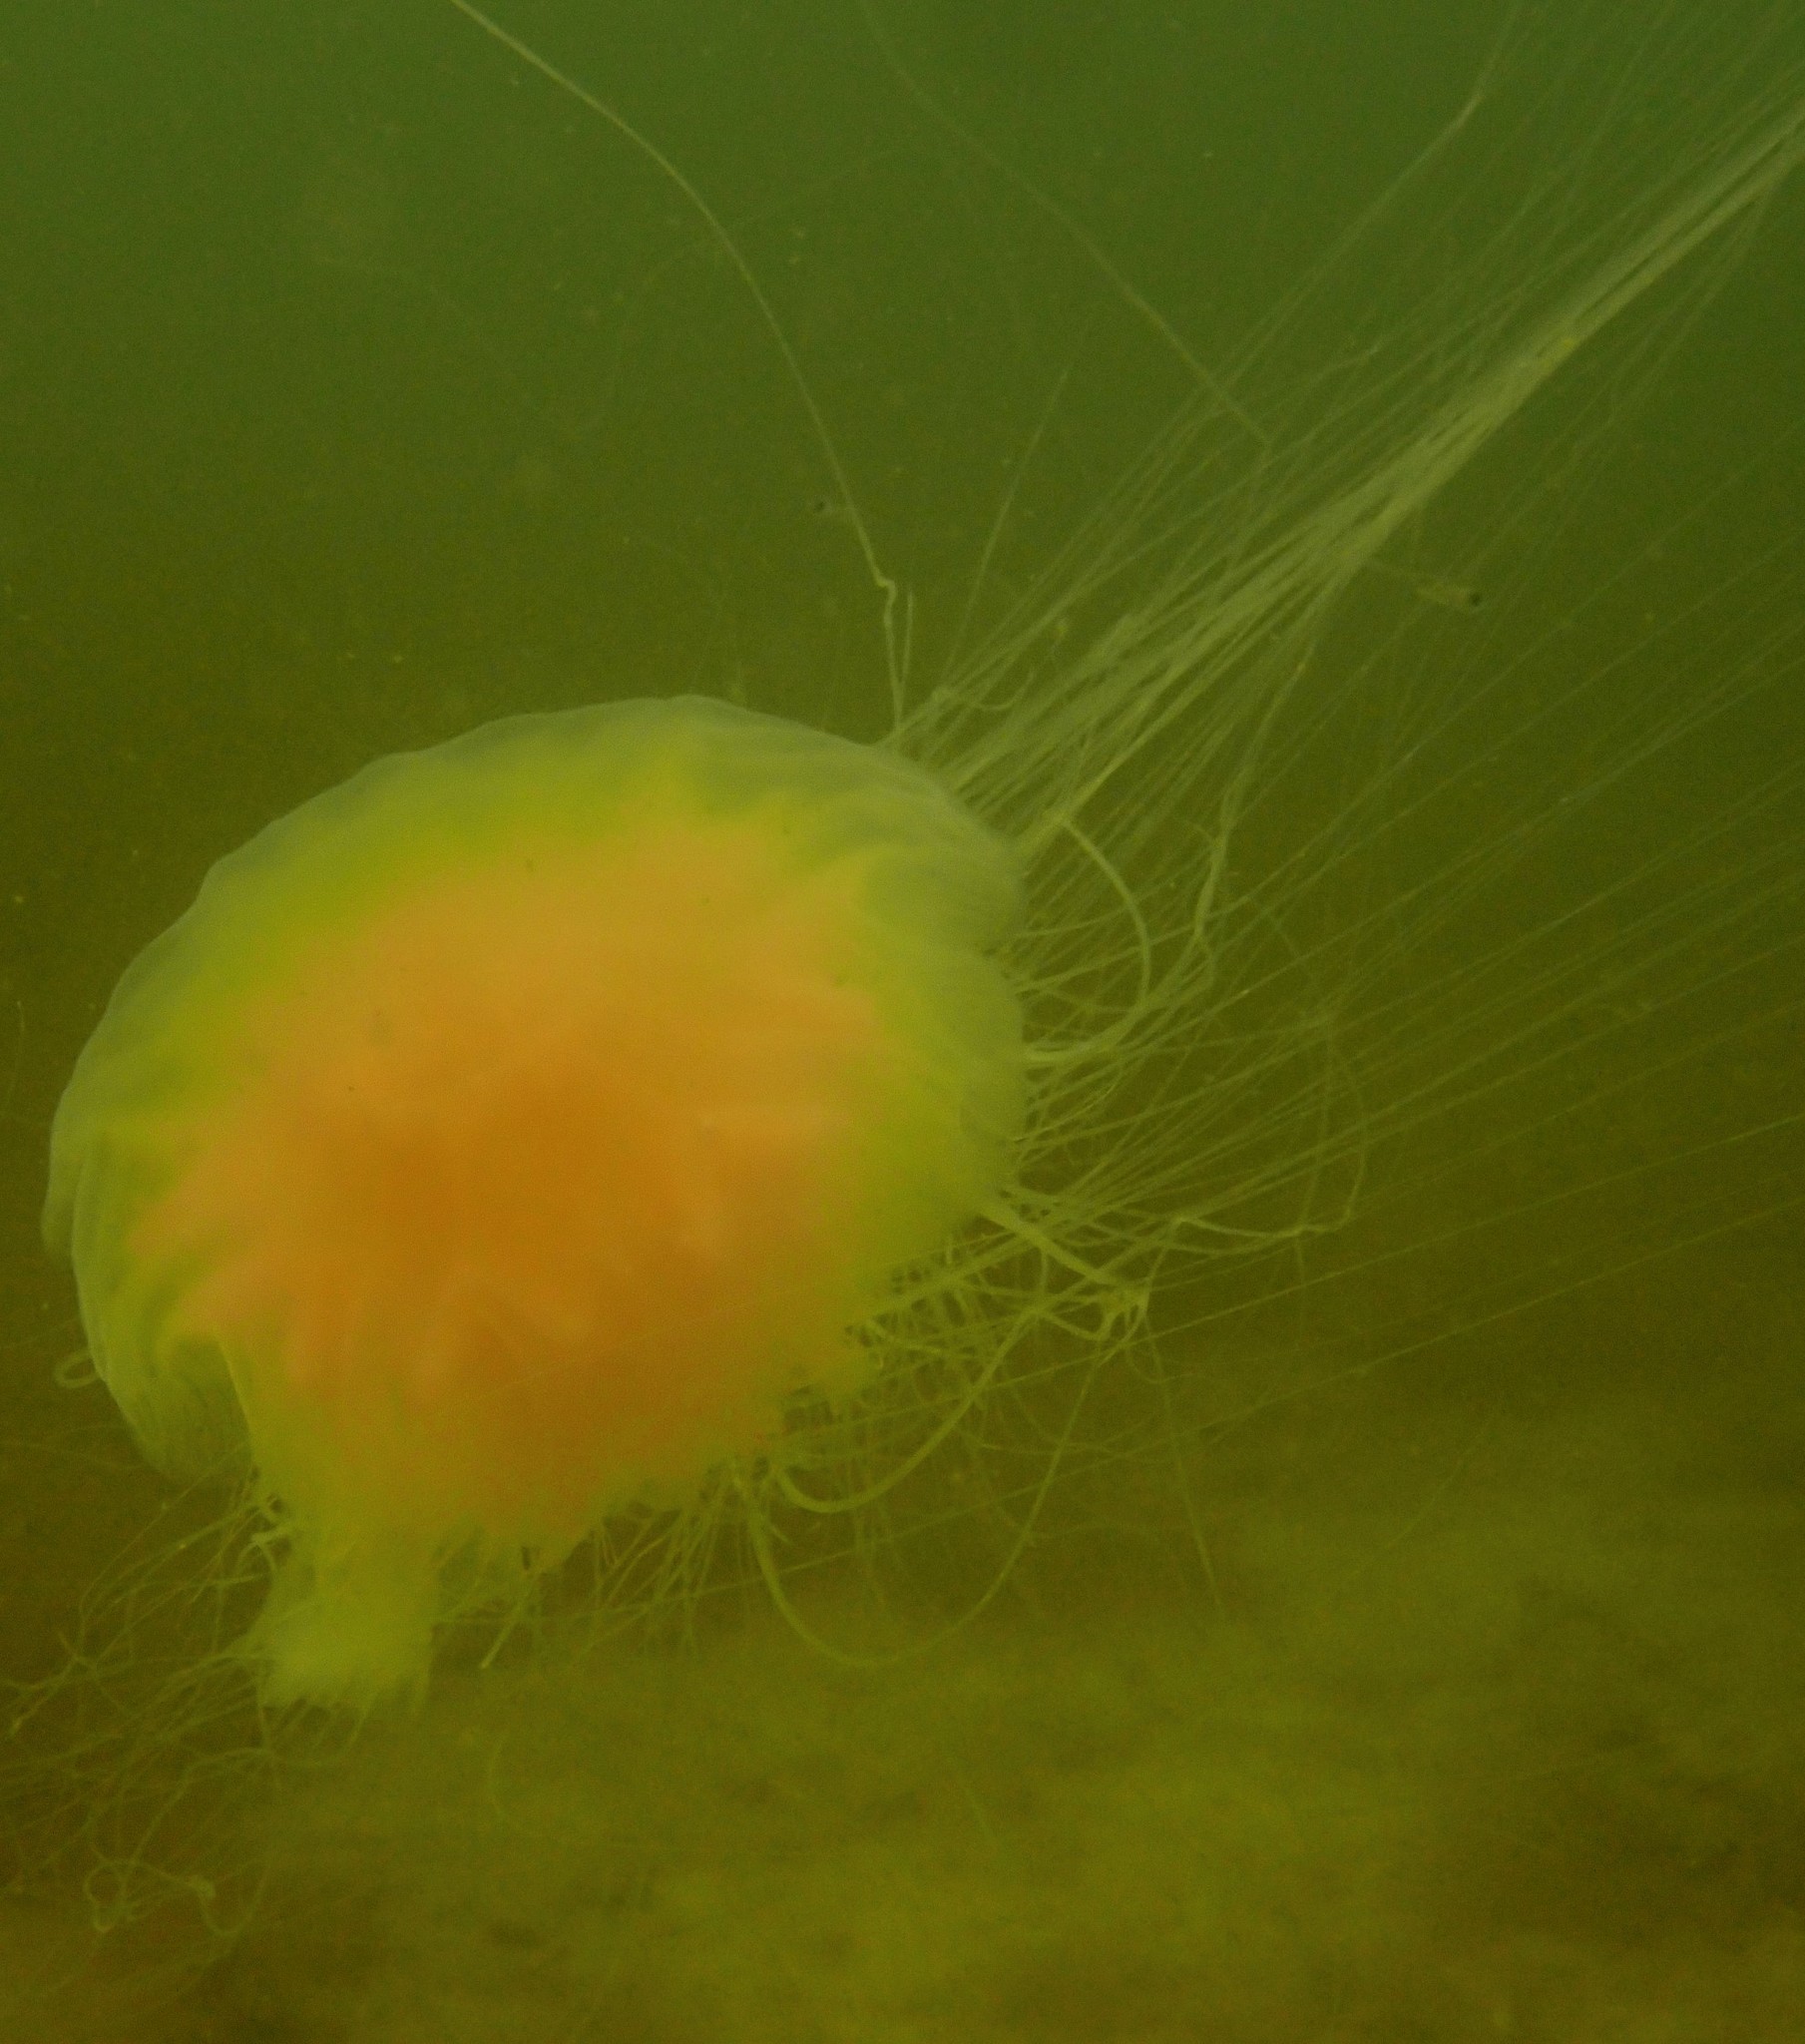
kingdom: Animalia
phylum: Cnidaria
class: Scyphozoa
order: Semaeostomeae
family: Cyaneidae
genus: Cyanea
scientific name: Cyanea capillata
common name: Lion's mane jellyfish
